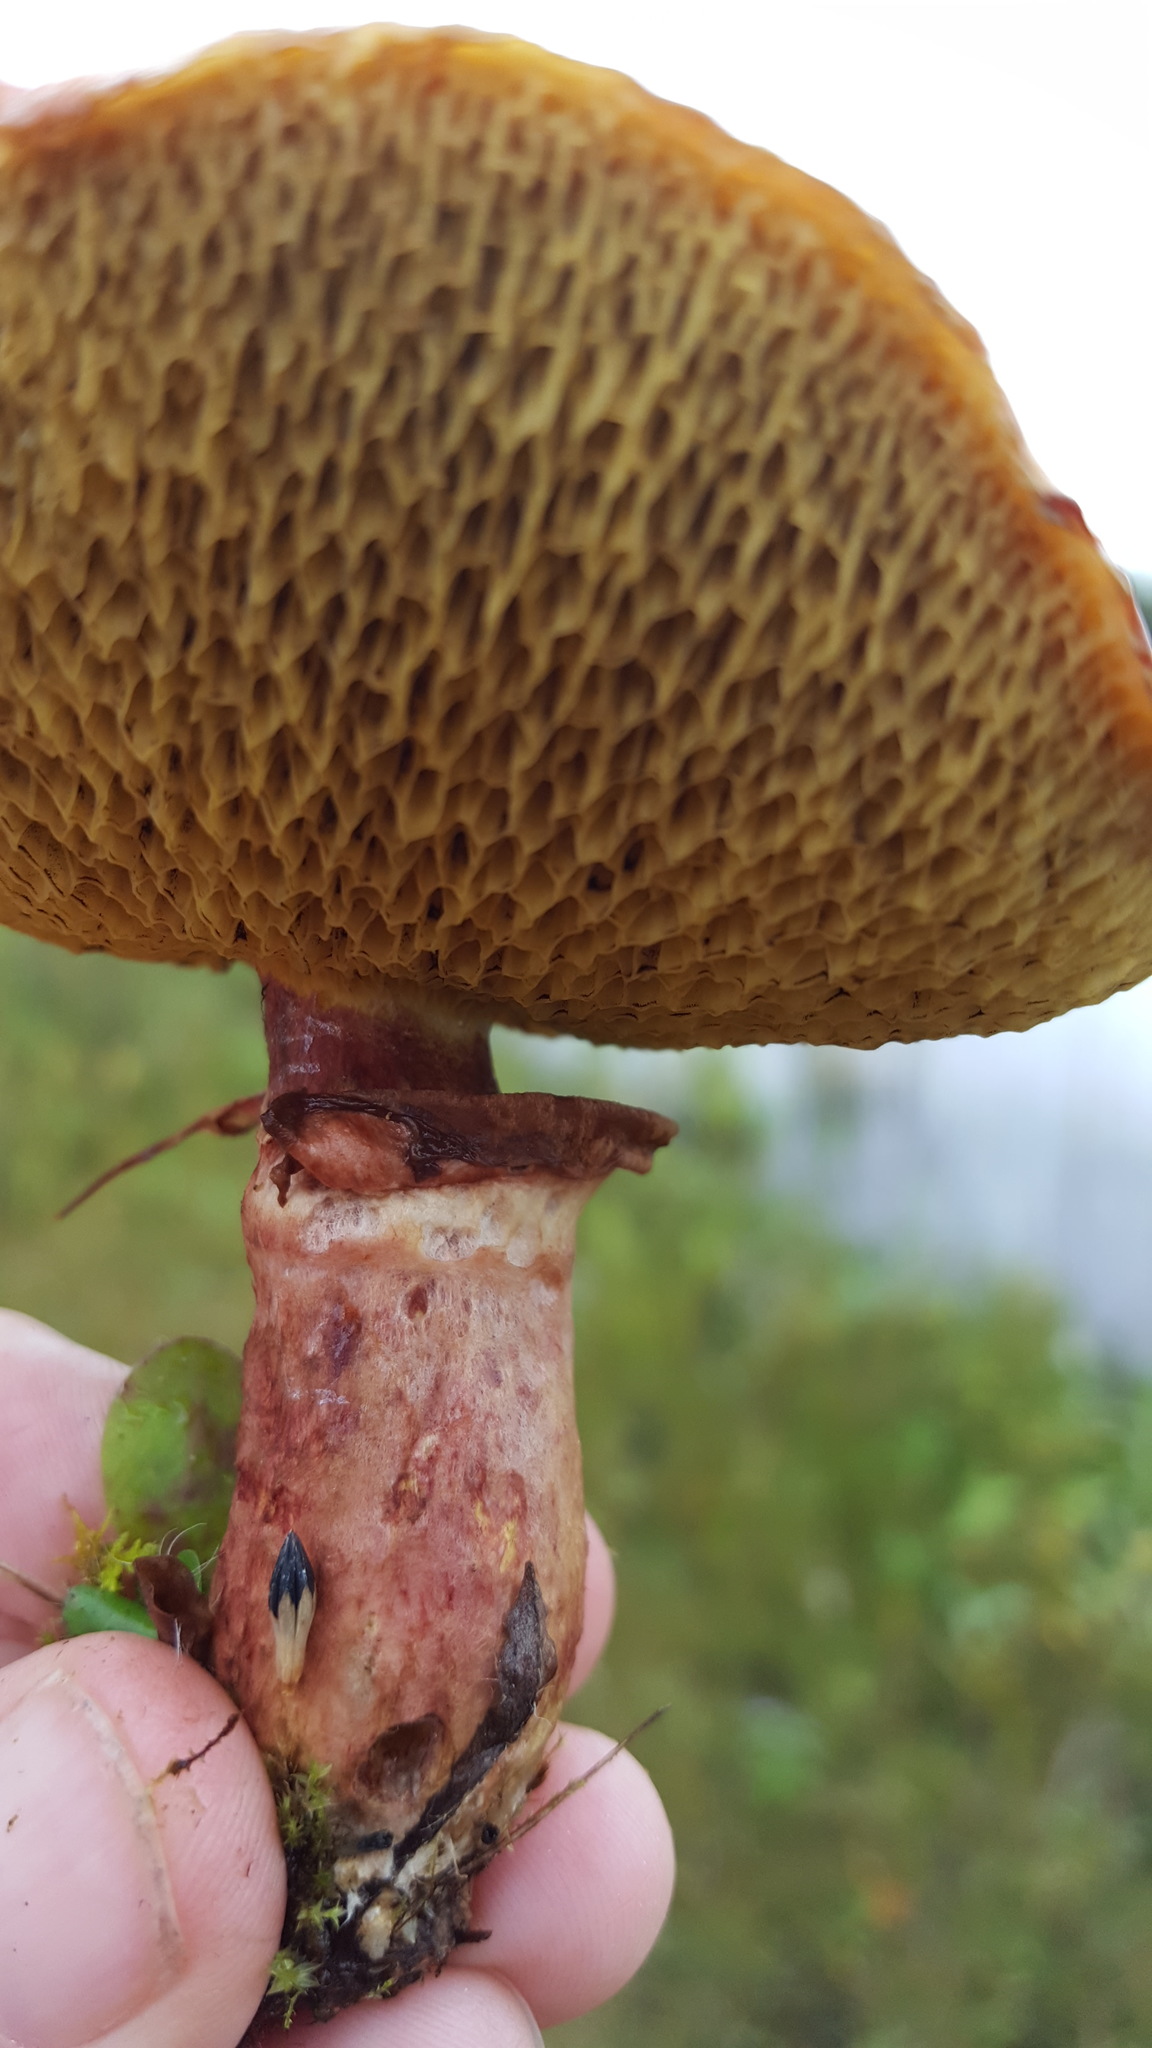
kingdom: Fungi
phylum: Basidiomycota
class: Agaricomycetes
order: Boletales
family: Suillaceae
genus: Boletinus
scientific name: Boletinus spectabilis
